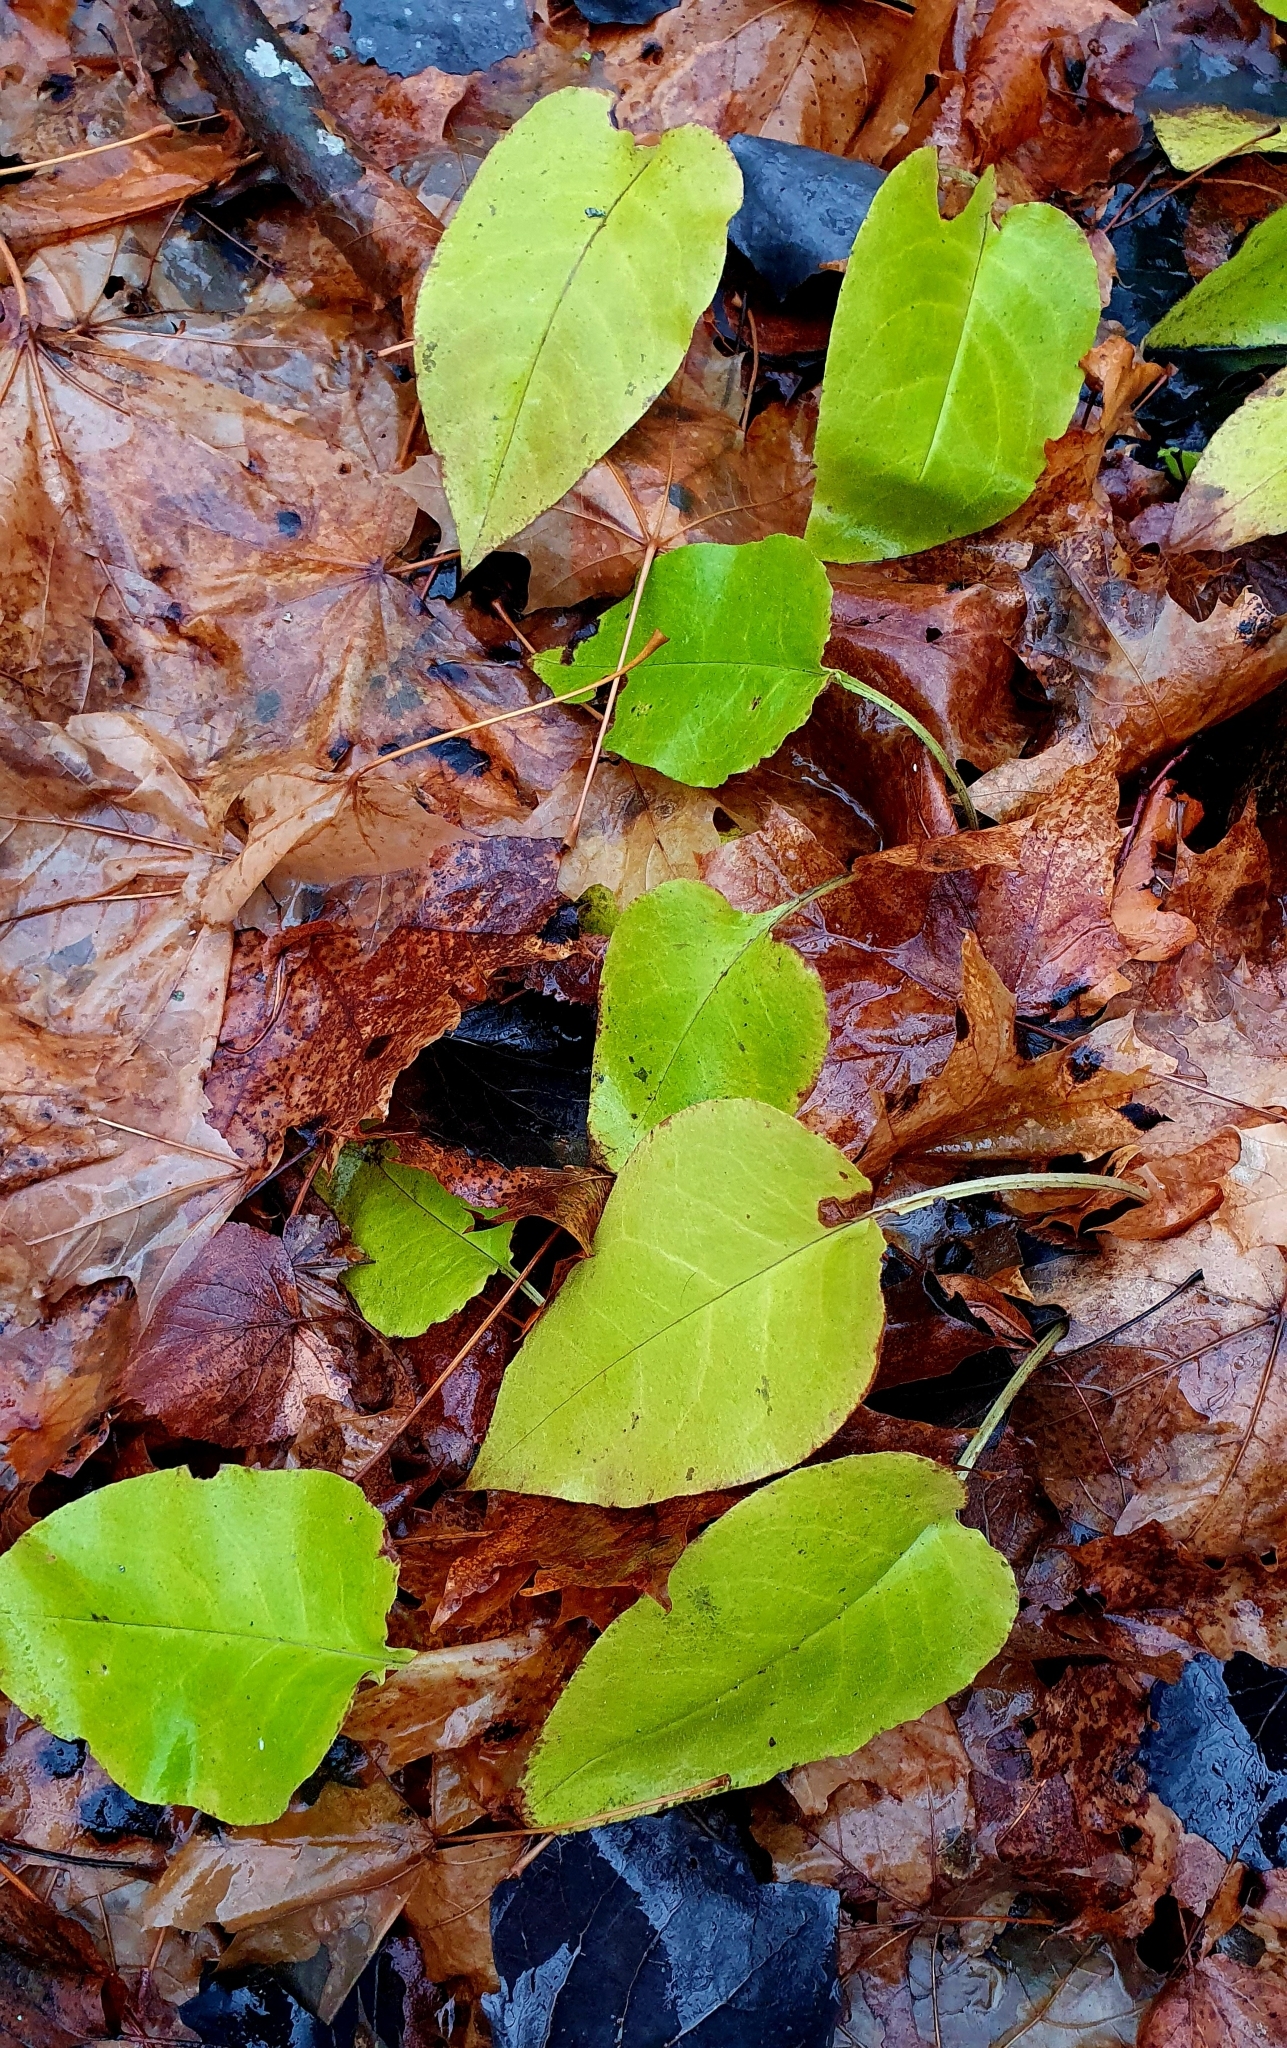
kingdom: Plantae
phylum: Tracheophyta
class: Magnoliopsida
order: Boraginales
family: Boraginaceae
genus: Pulmonaria
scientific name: Pulmonaria obscura
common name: Suffolk lungwort
